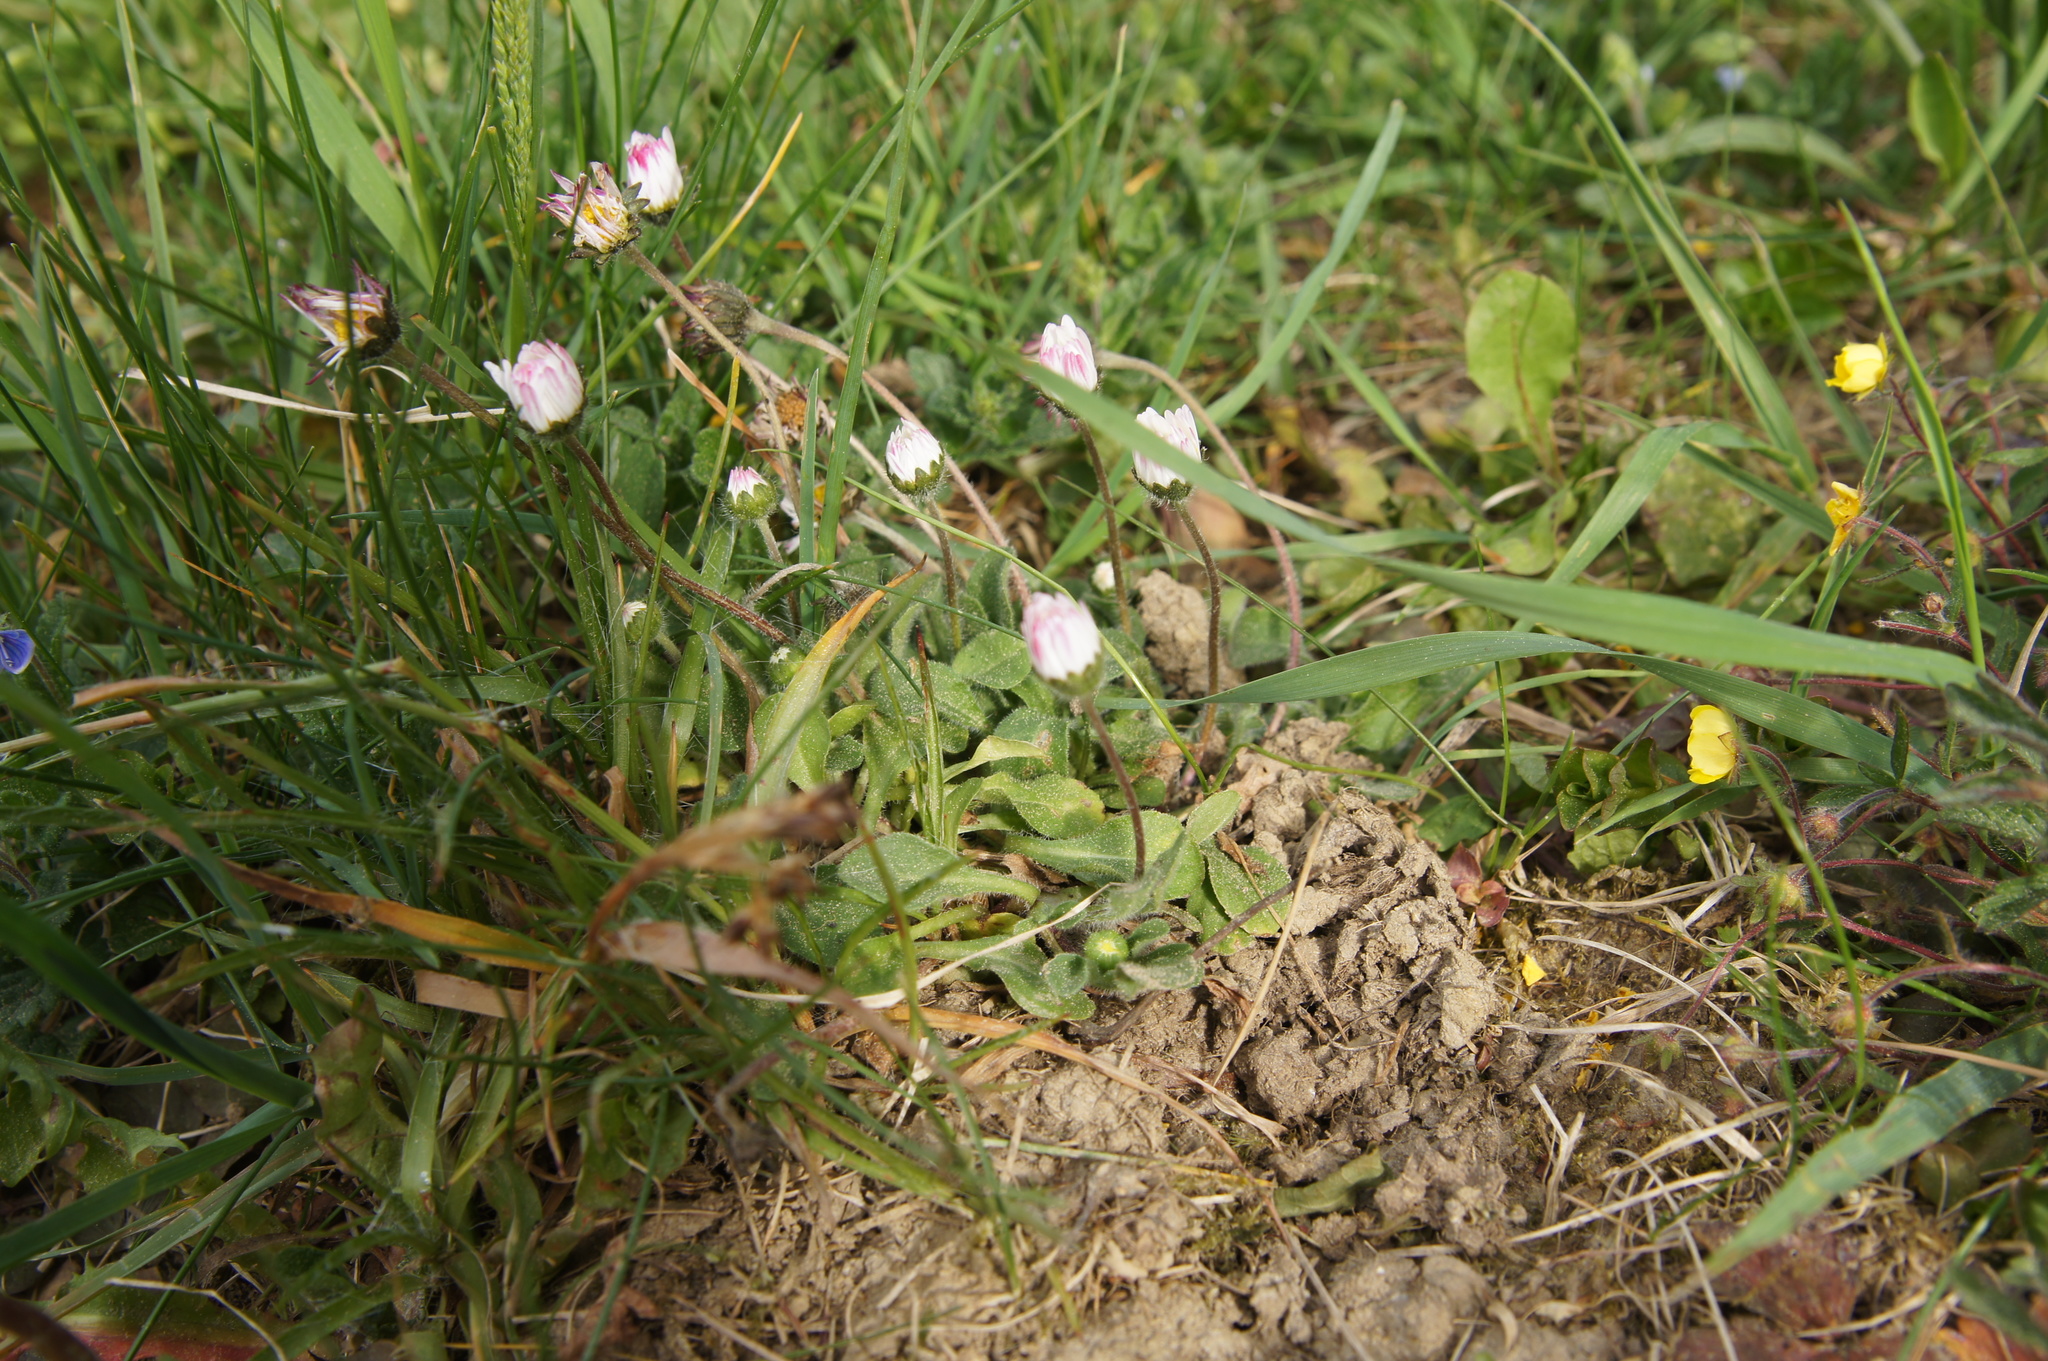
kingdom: Plantae
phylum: Tracheophyta
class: Magnoliopsida
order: Asterales
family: Asteraceae
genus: Bellis
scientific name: Bellis perennis
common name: Lawndaisy
